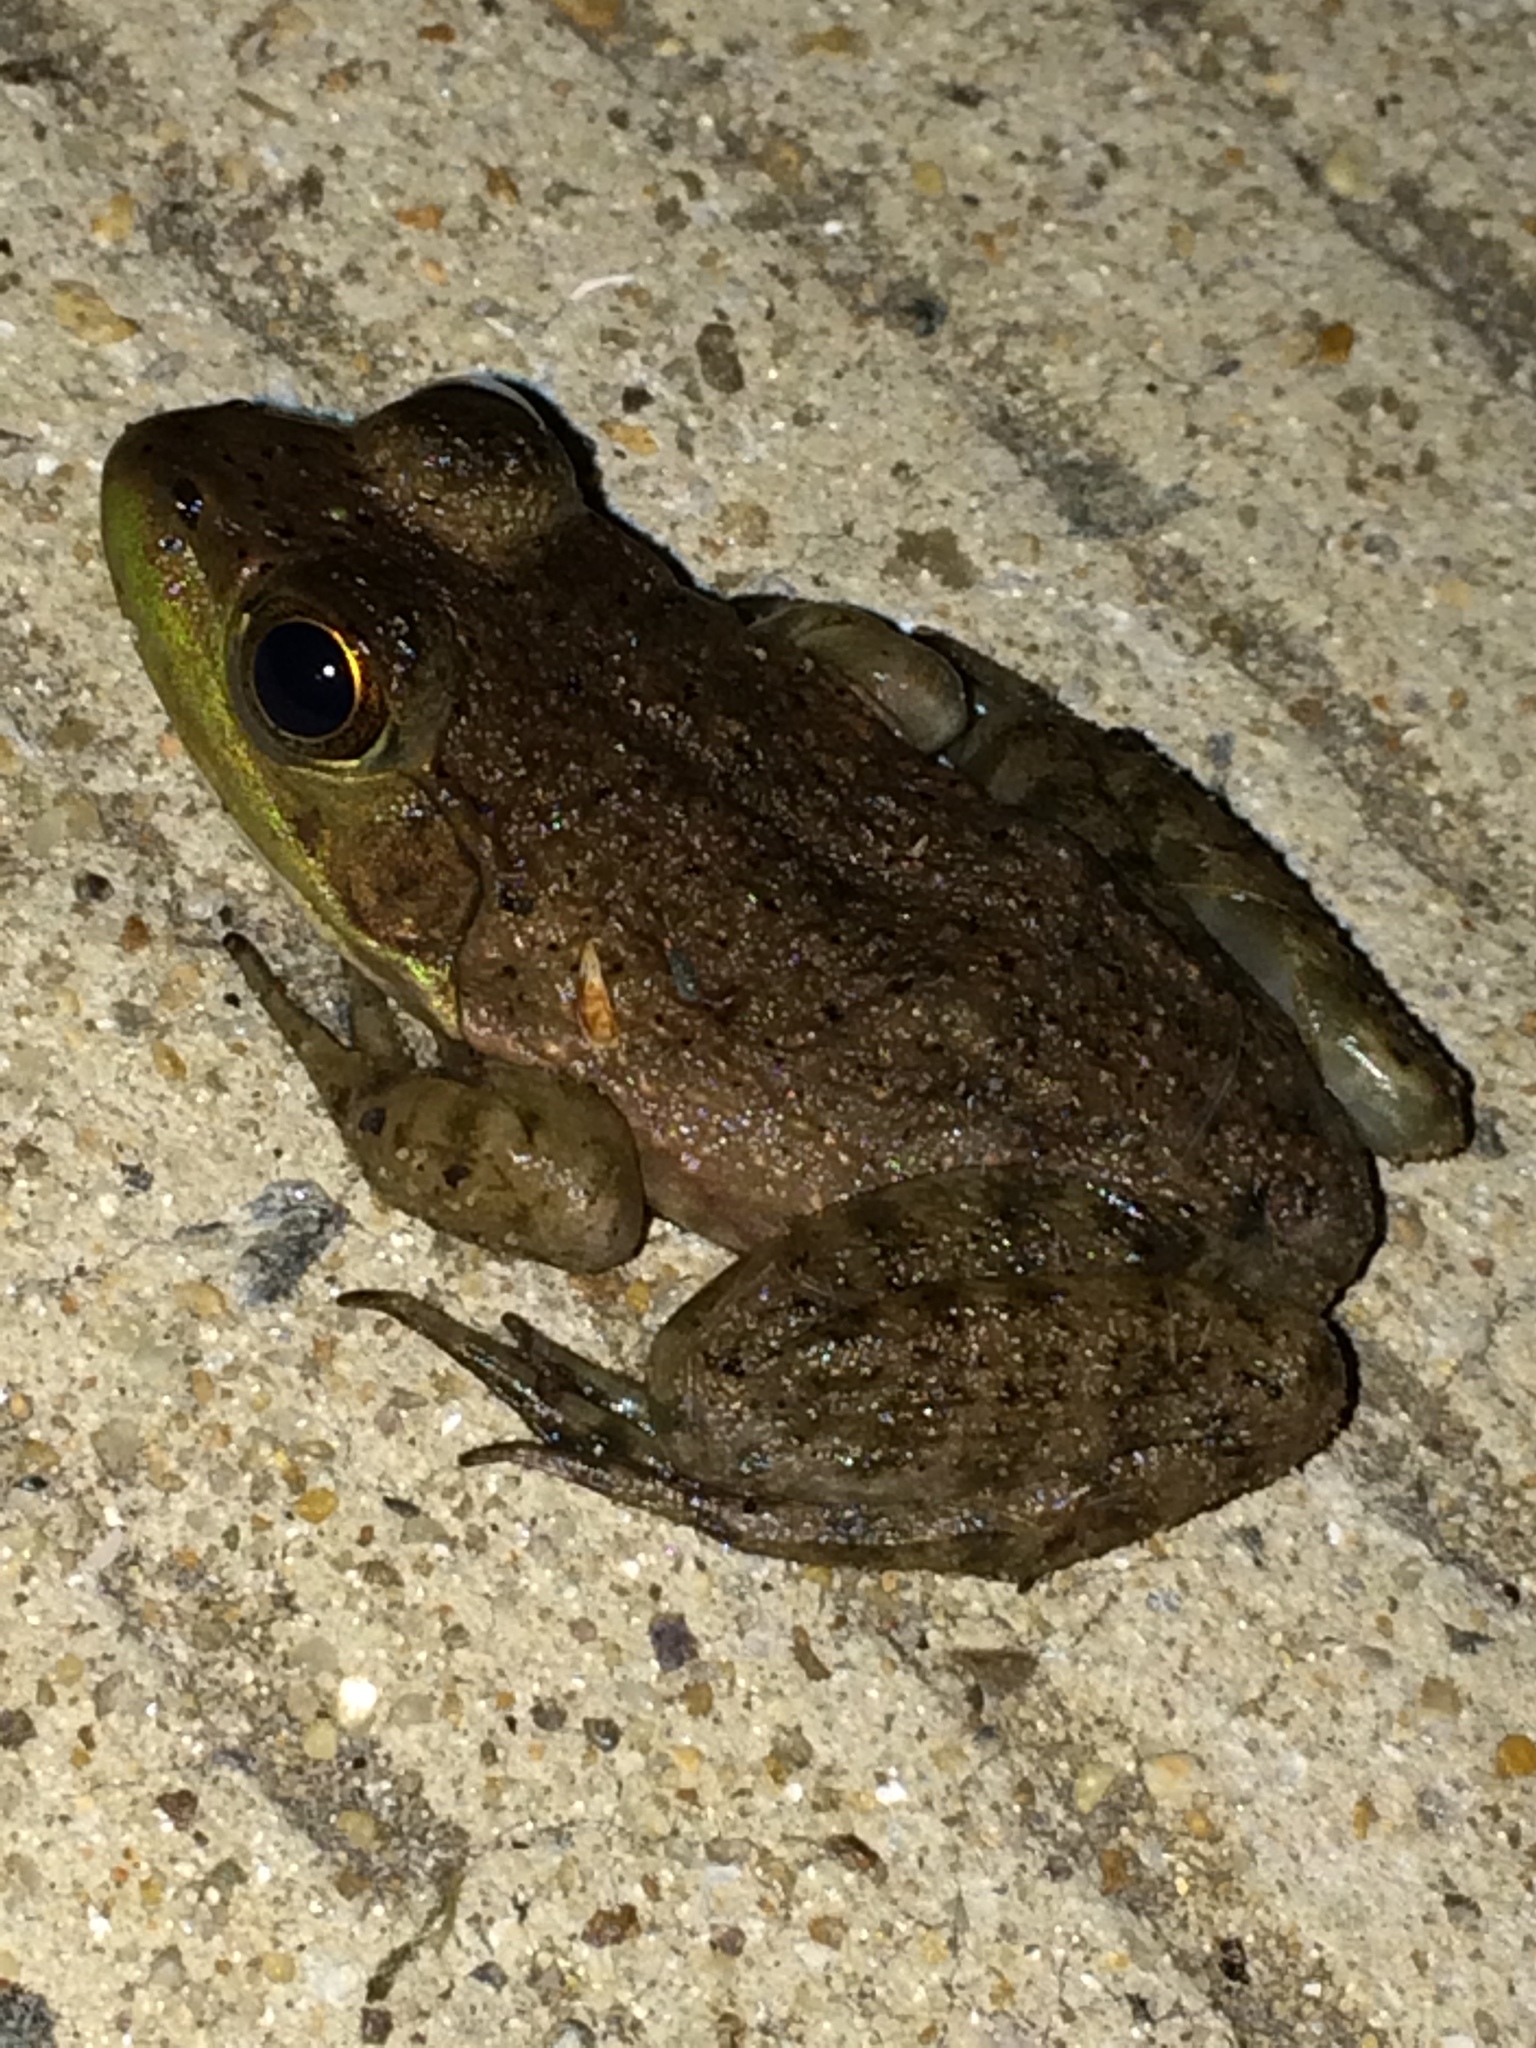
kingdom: Animalia
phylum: Chordata
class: Amphibia
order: Anura
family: Ranidae
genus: Lithobates
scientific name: Lithobates catesbeianus
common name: American bullfrog
